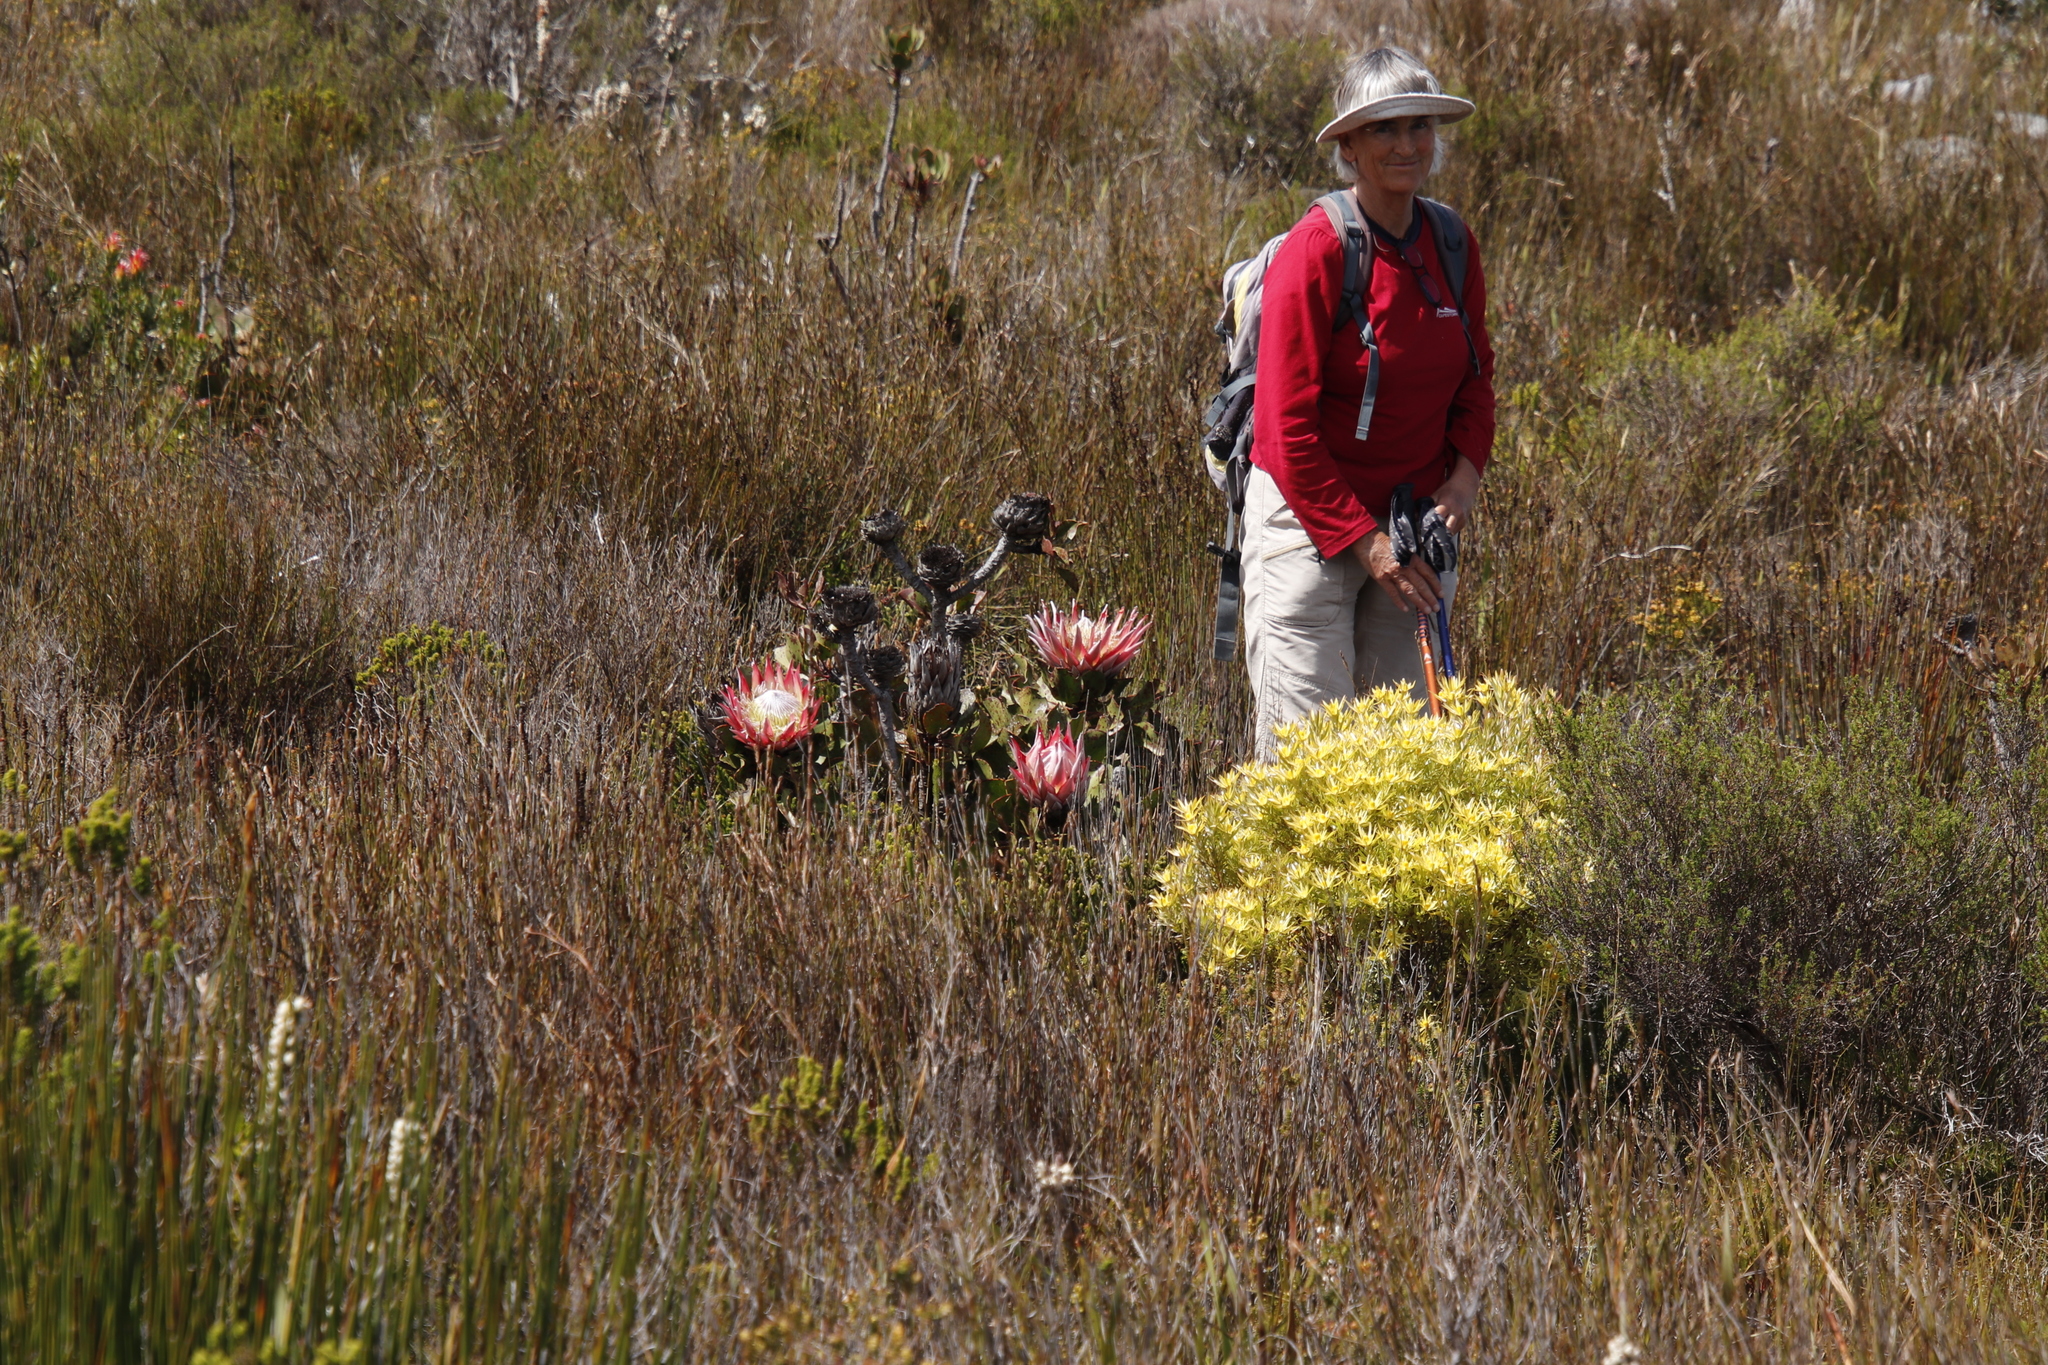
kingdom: Plantae
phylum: Tracheophyta
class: Magnoliopsida
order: Proteales
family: Proteaceae
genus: Leucadendron
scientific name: Leucadendron xanthoconus
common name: Sickle-leaf conebush
